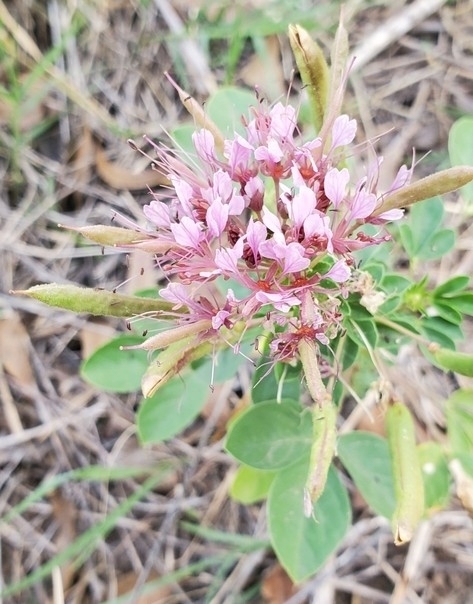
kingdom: Plantae
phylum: Tracheophyta
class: Magnoliopsida
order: Brassicales
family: Cleomaceae
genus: Polanisia
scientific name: Polanisia dodecandra
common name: Clammyweed
